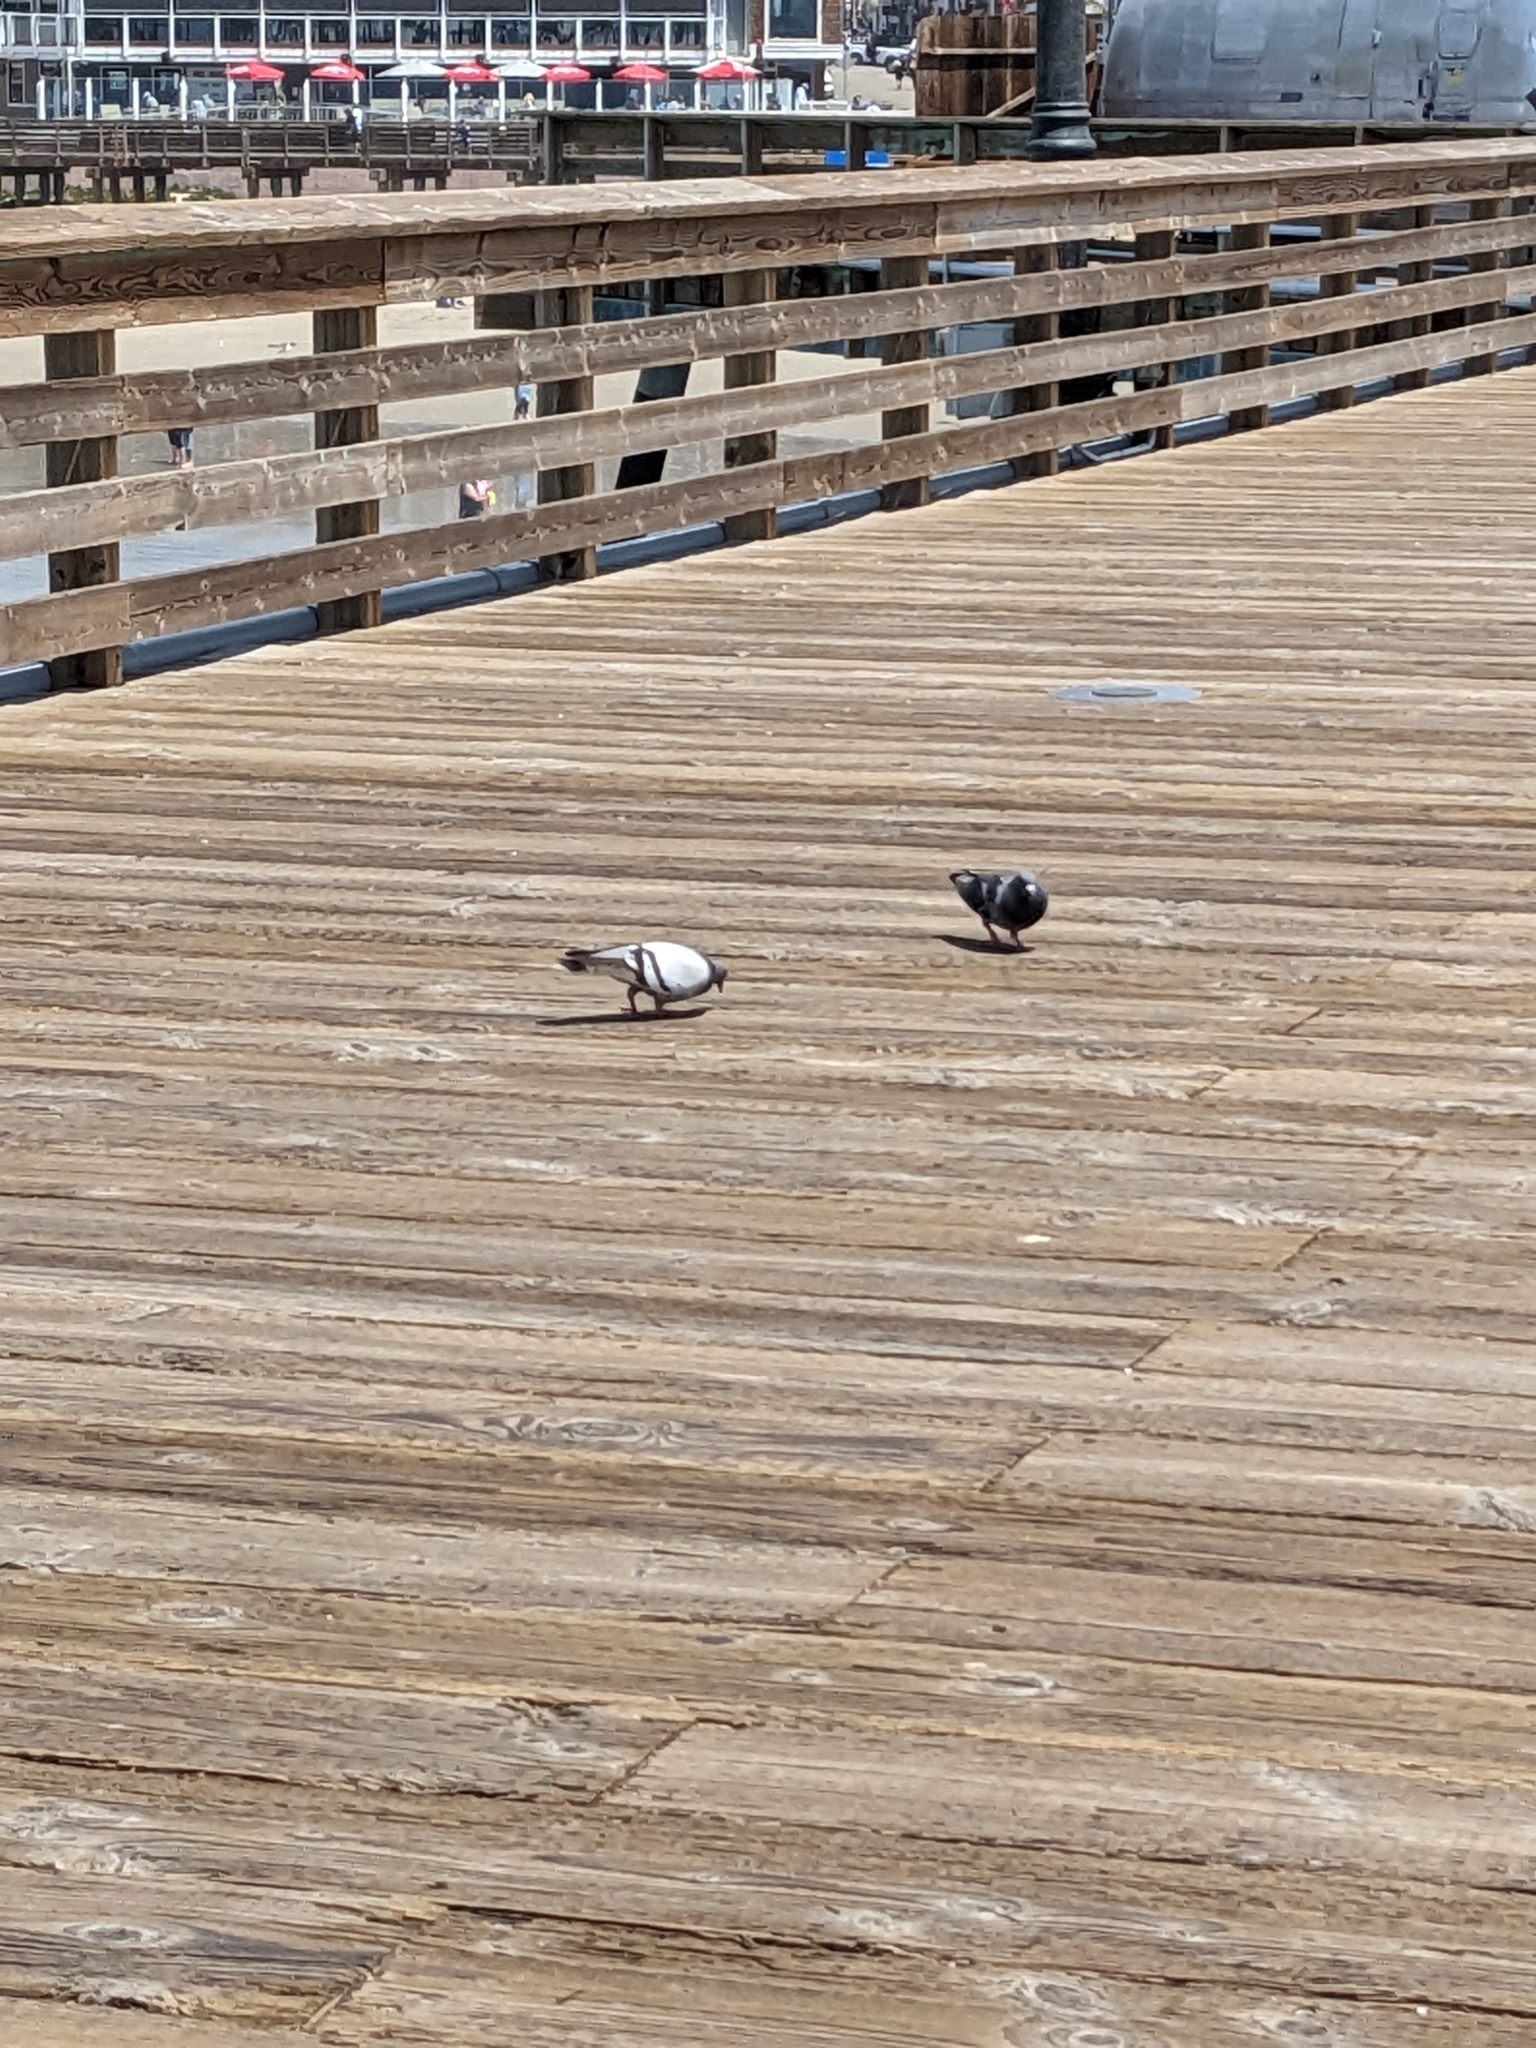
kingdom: Animalia
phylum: Chordata
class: Aves
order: Columbiformes
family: Columbidae
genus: Columba
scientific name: Columba livia
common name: Rock pigeon
